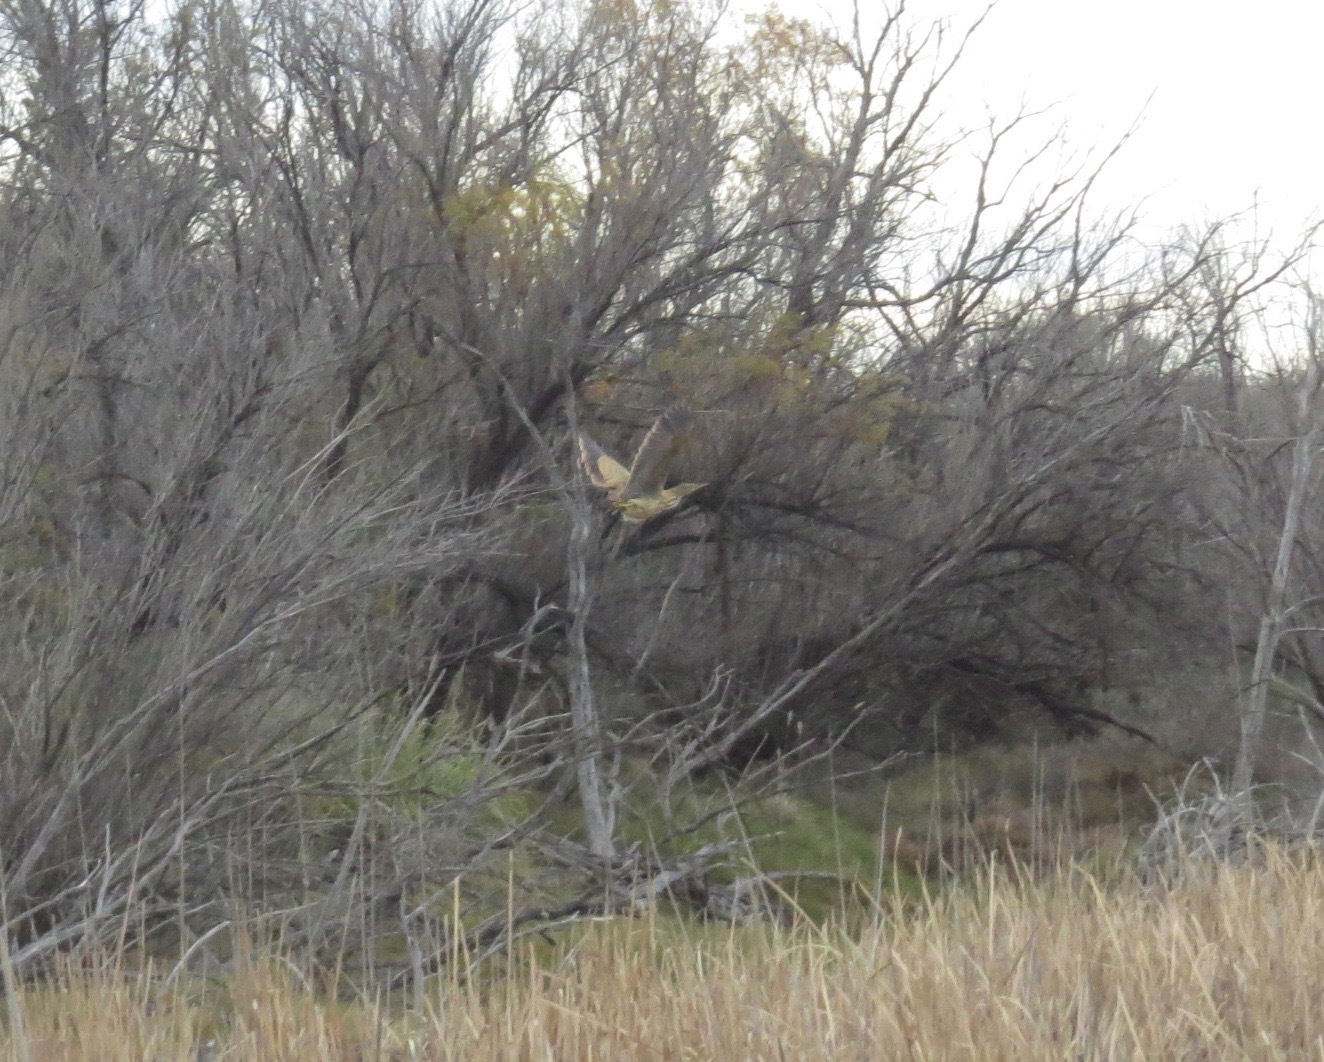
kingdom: Animalia
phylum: Chordata
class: Aves
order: Pelecaniformes
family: Ardeidae
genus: Botaurus
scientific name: Botaurus lentiginosus
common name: American bittern
